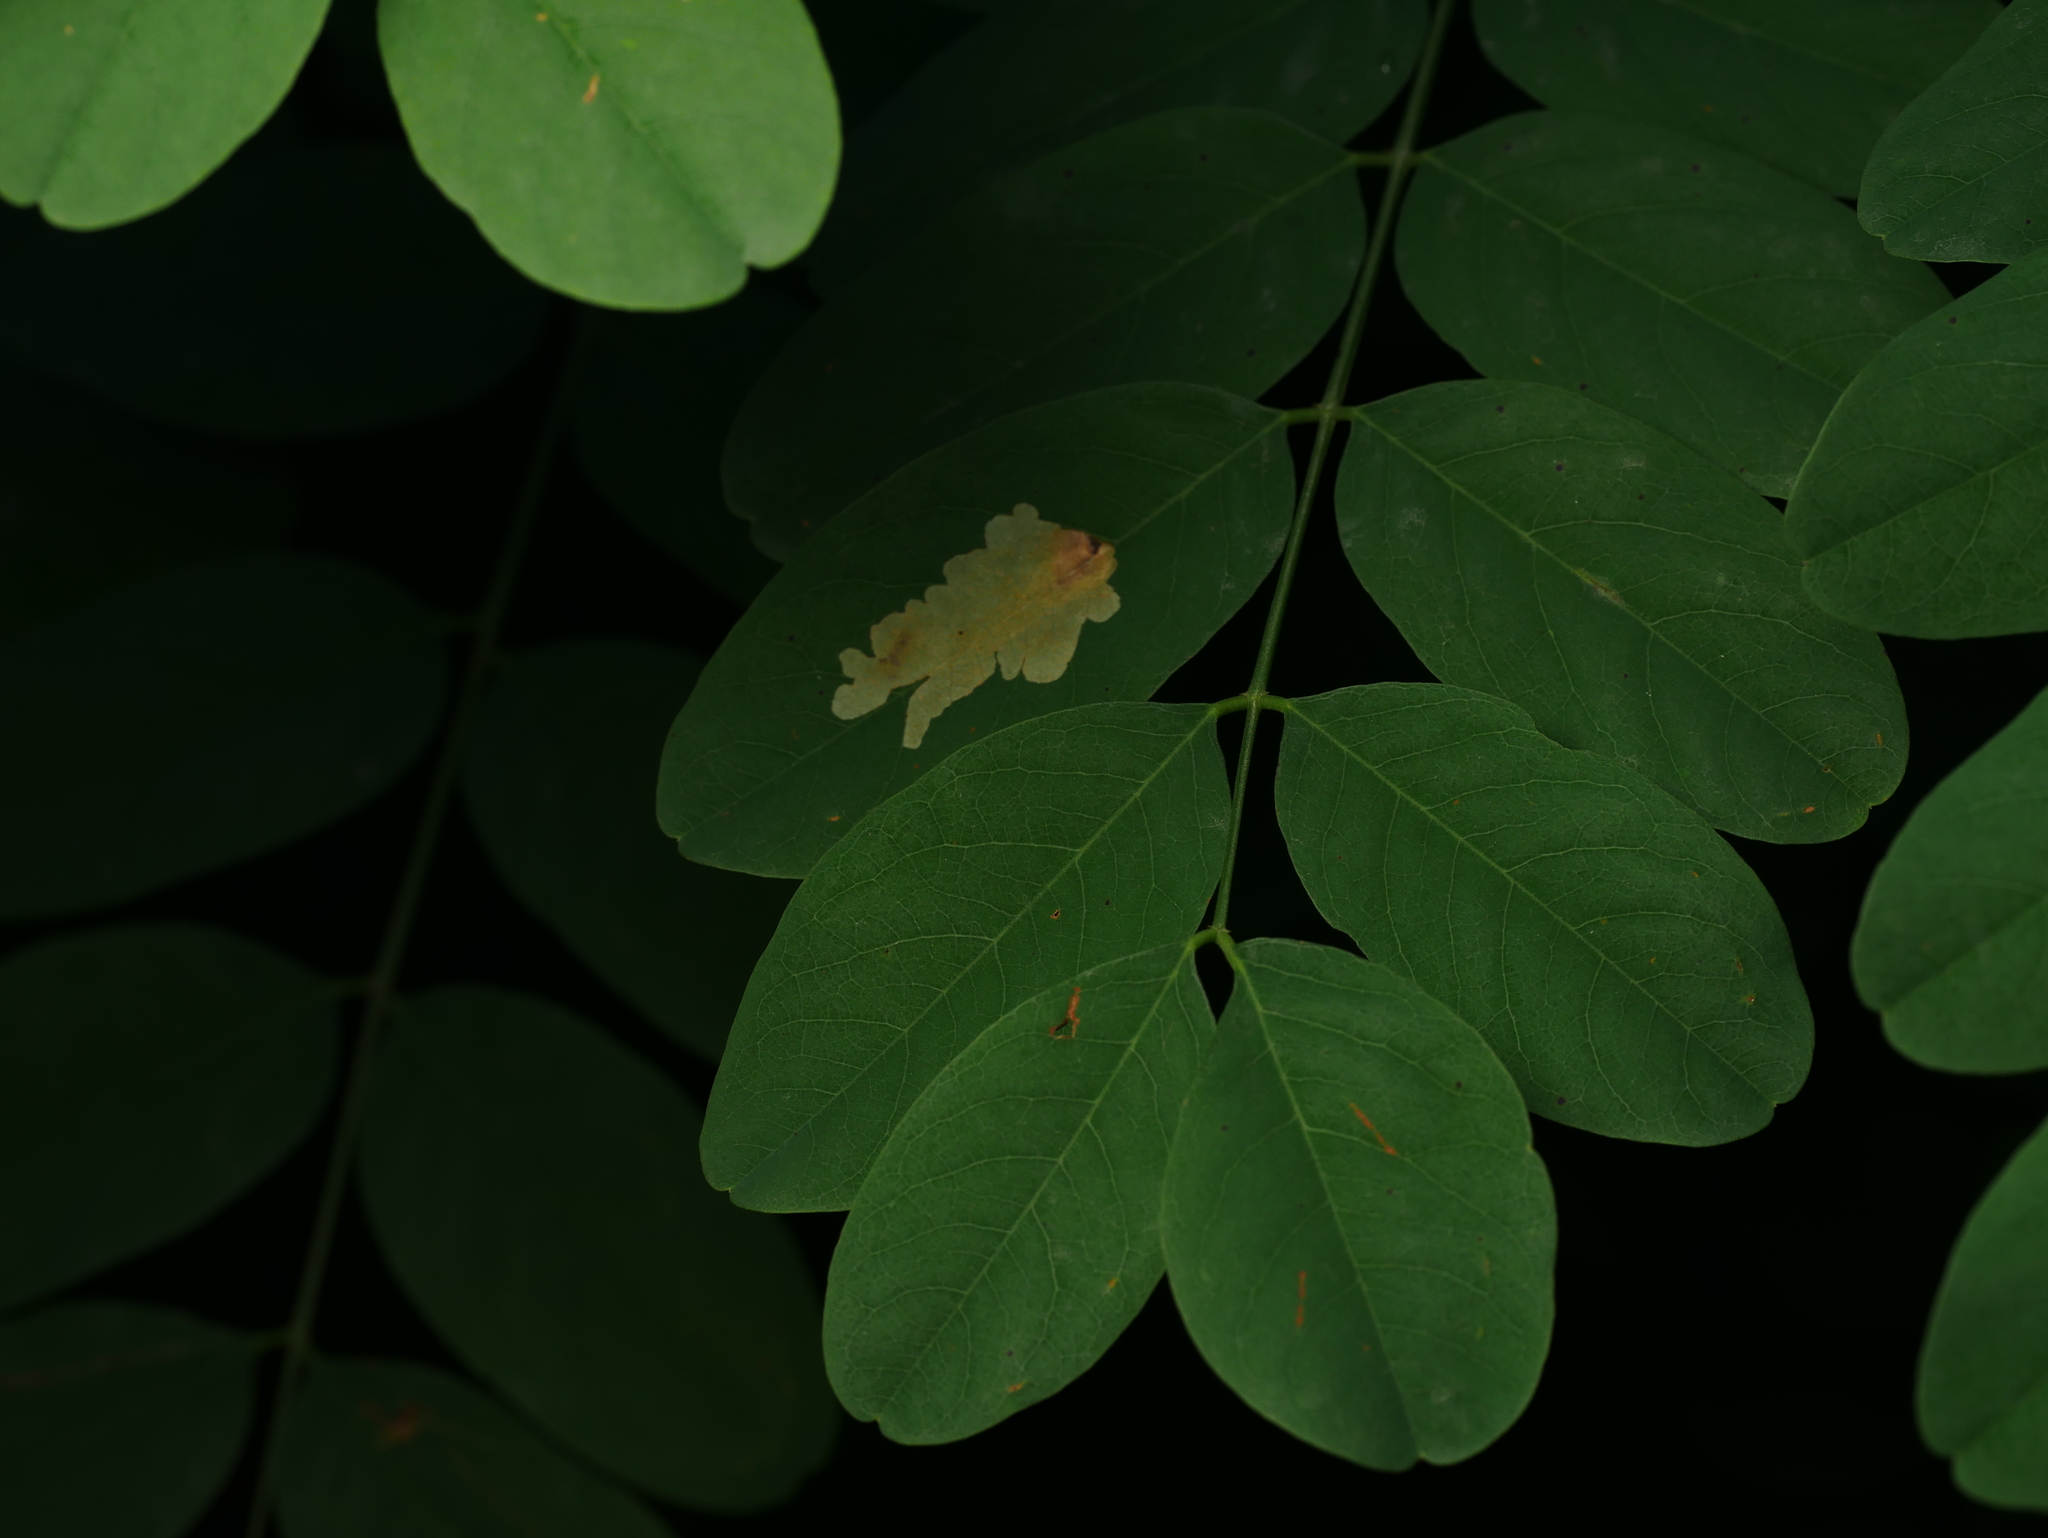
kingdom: Plantae
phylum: Tracheophyta
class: Magnoliopsida
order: Fabales
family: Fabaceae
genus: Robinia
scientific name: Robinia pseudoacacia
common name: Black locust
